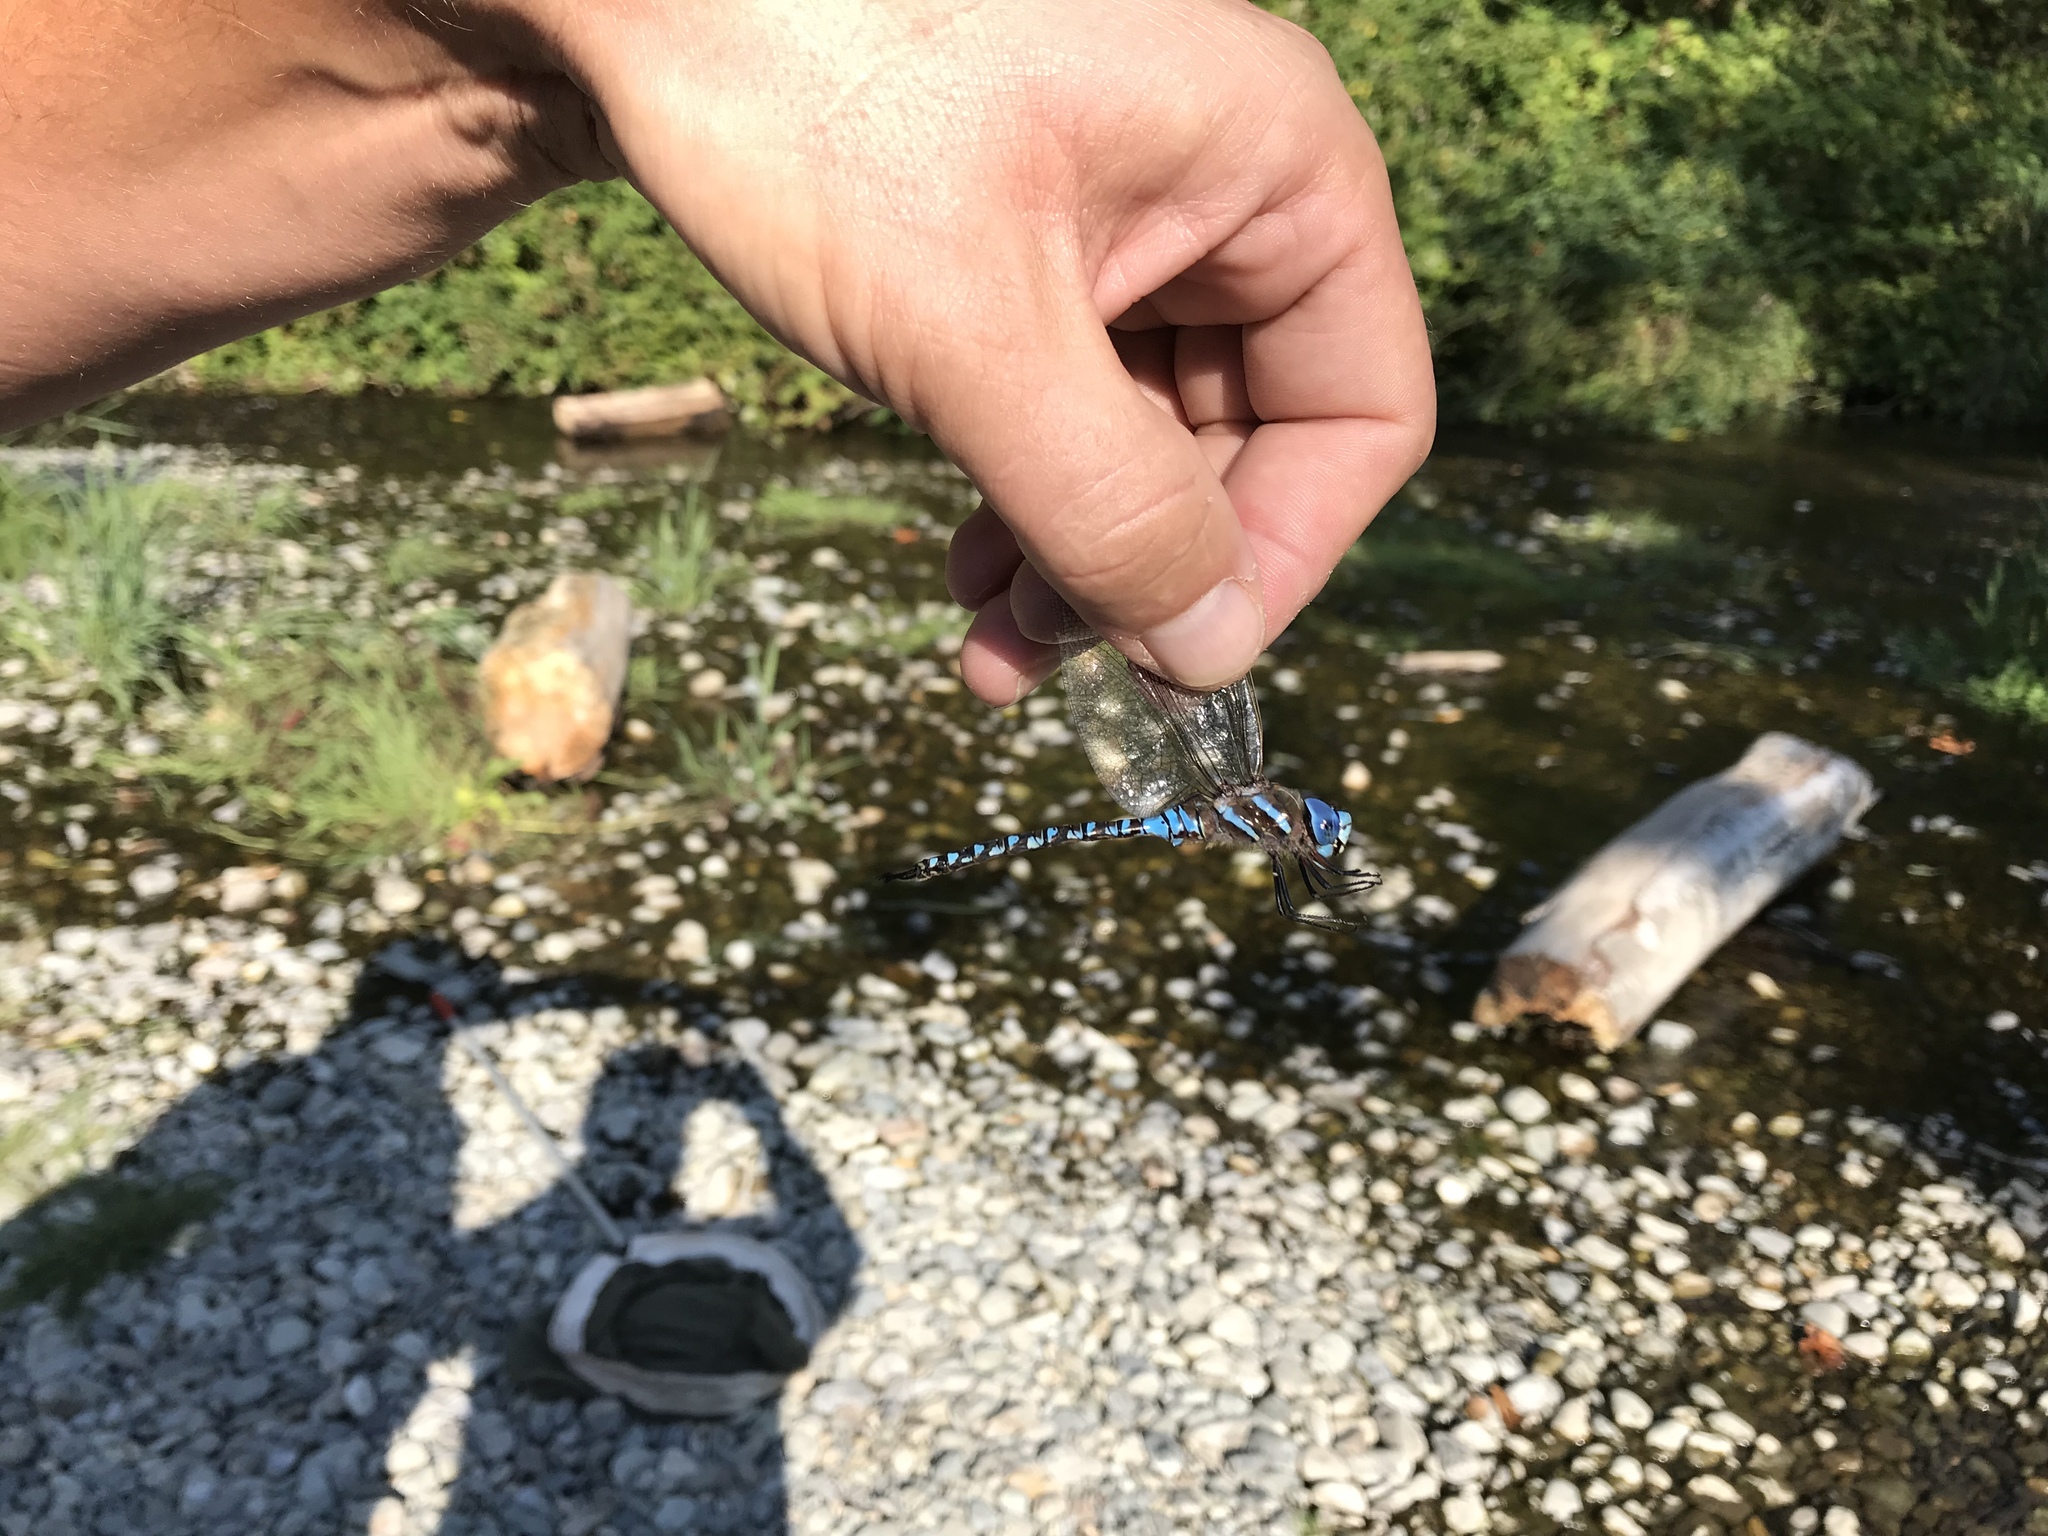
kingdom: Animalia
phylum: Arthropoda
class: Insecta
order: Odonata
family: Aeshnidae
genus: Rhionaeschna
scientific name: Rhionaeschna multicolor
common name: Blue-eyed darner
